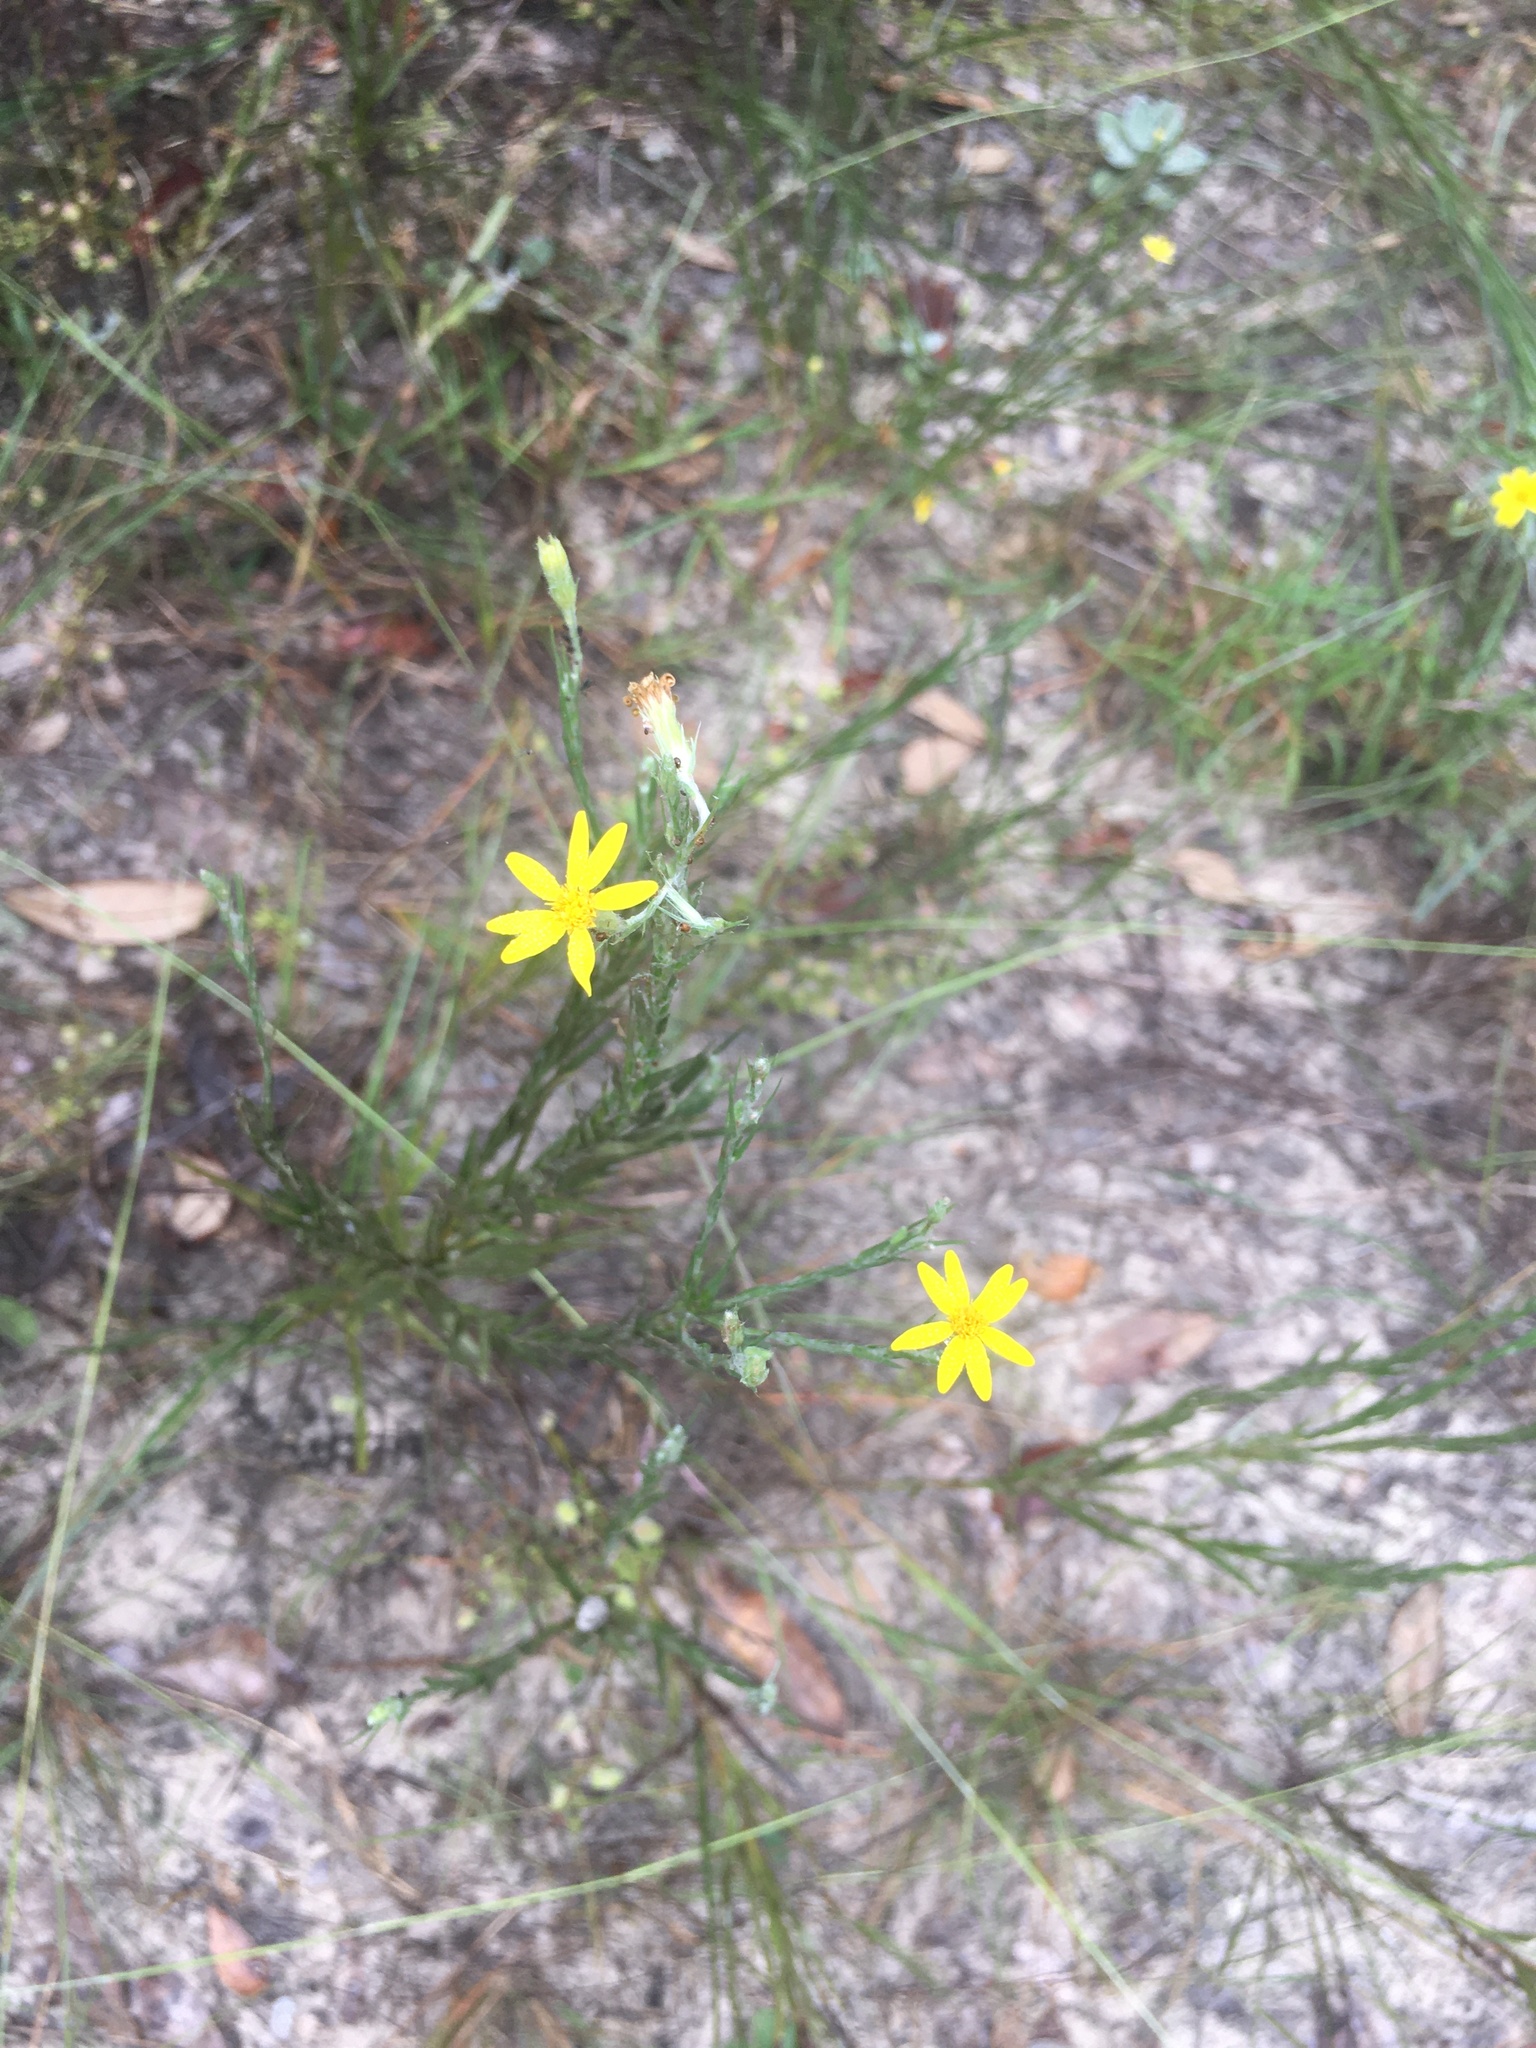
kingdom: Plantae
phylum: Tracheophyta
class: Magnoliopsida
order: Asterales
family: Asteraceae
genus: Pityopsis
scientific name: Pityopsis graminifolia
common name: Grass-leaf golden-aster
